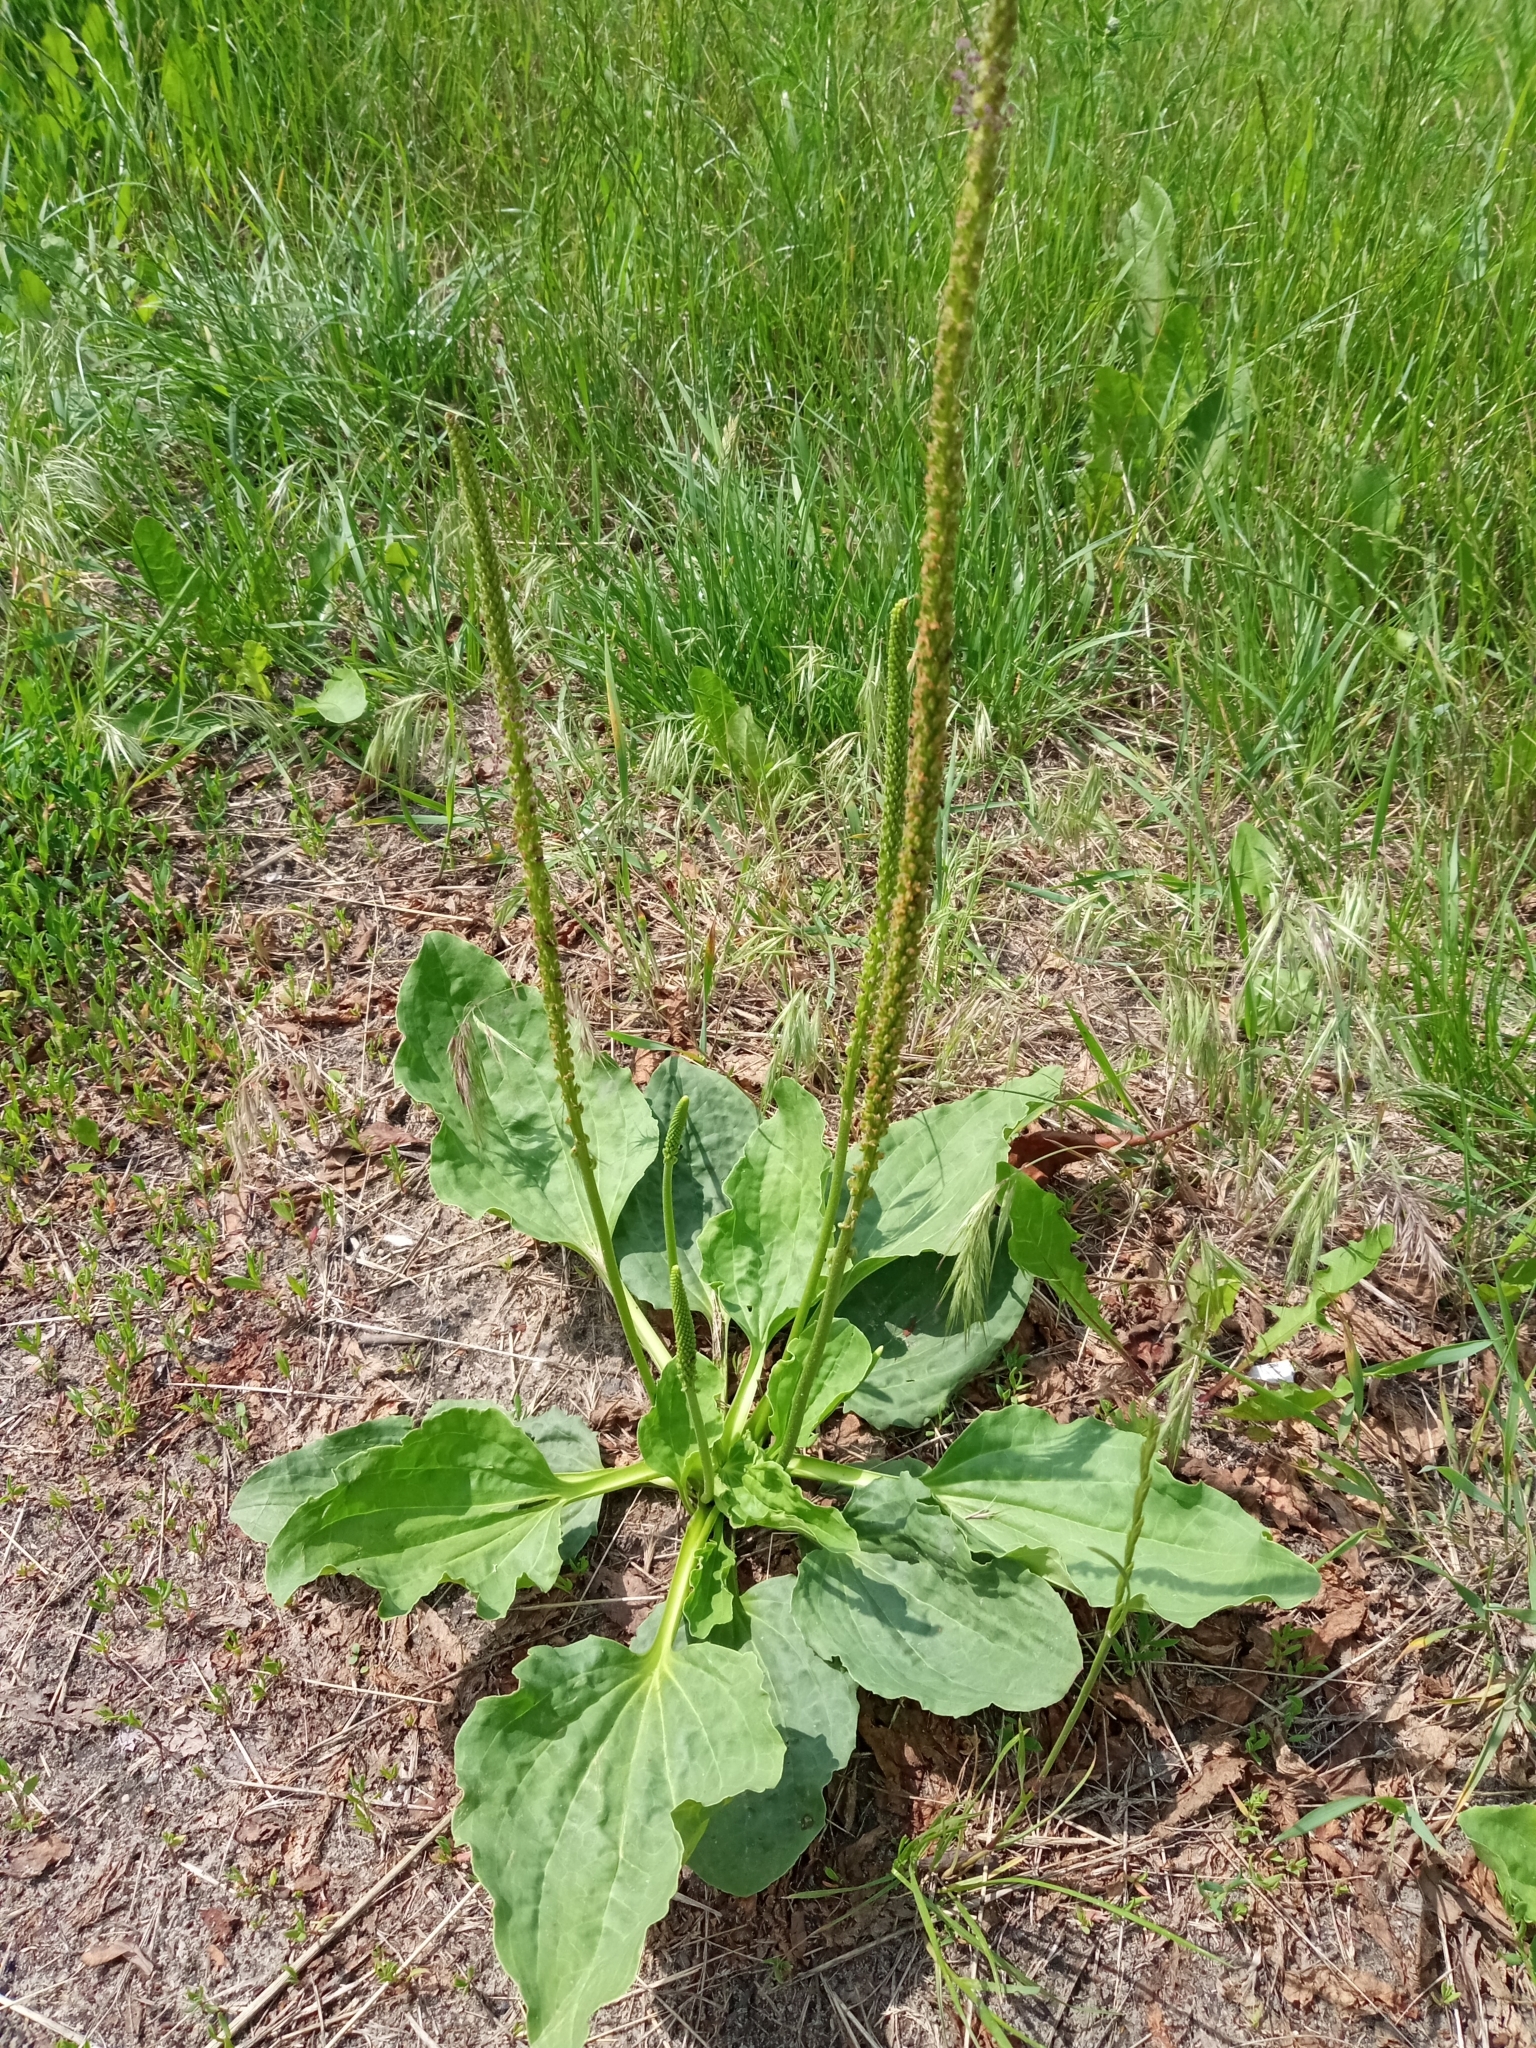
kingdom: Plantae
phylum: Tracheophyta
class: Magnoliopsida
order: Lamiales
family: Plantaginaceae
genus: Plantago
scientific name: Plantago major
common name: Common plantain
